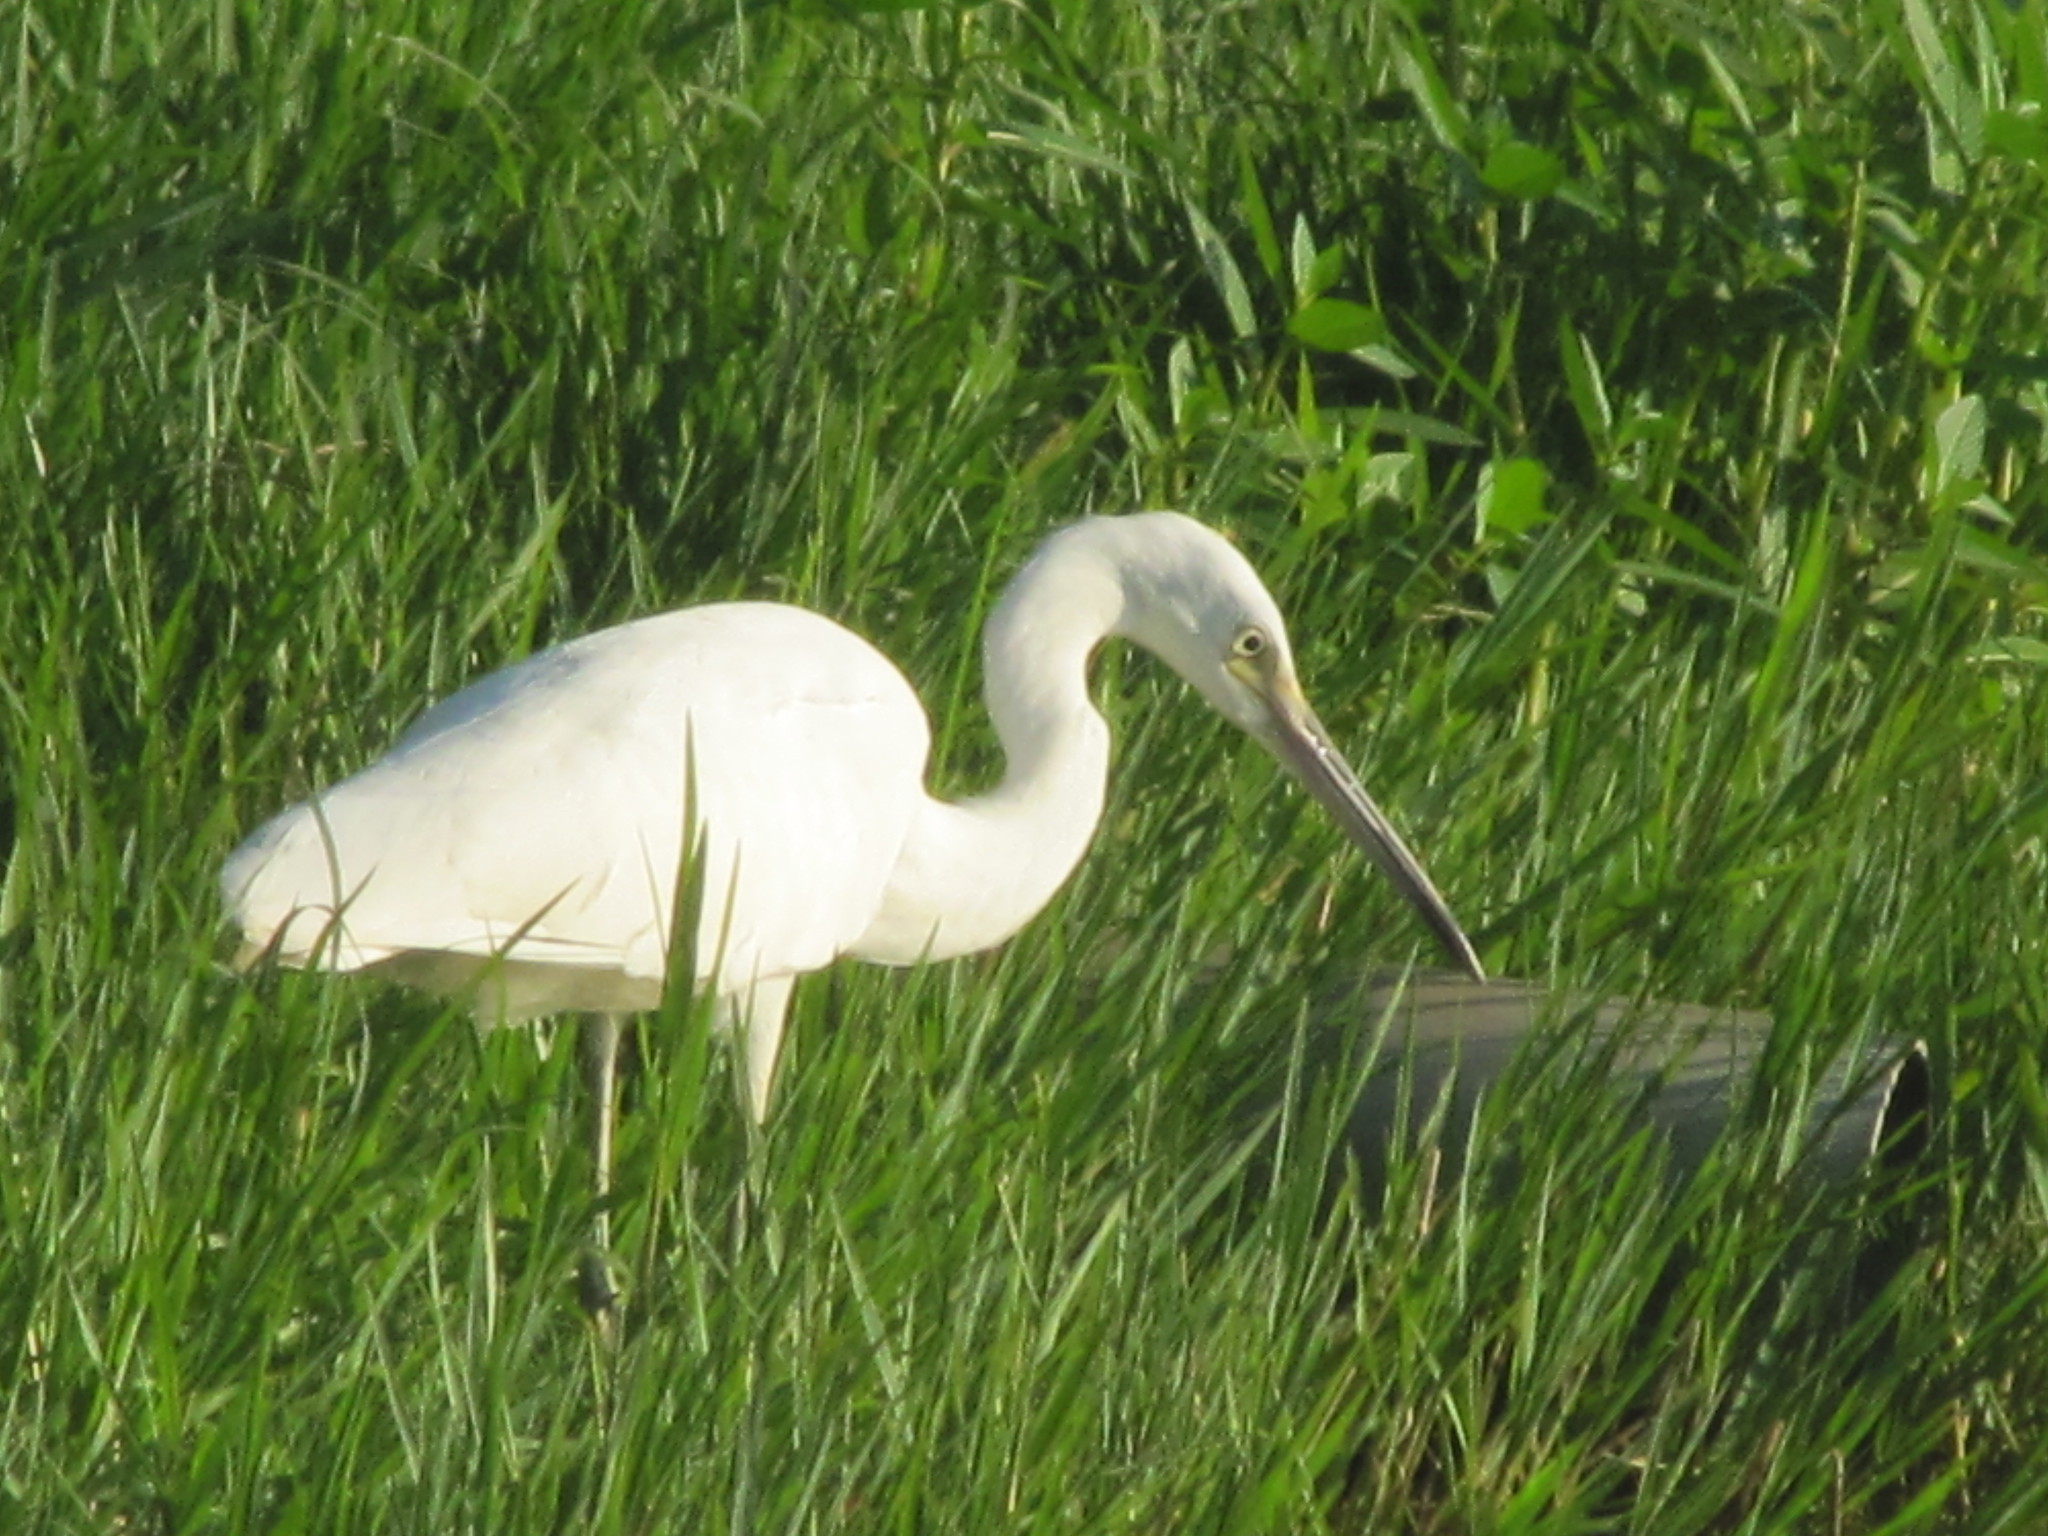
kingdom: Animalia
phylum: Chordata
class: Aves
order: Pelecaniformes
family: Ardeidae
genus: Egretta
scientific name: Egretta garzetta
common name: Little egret
